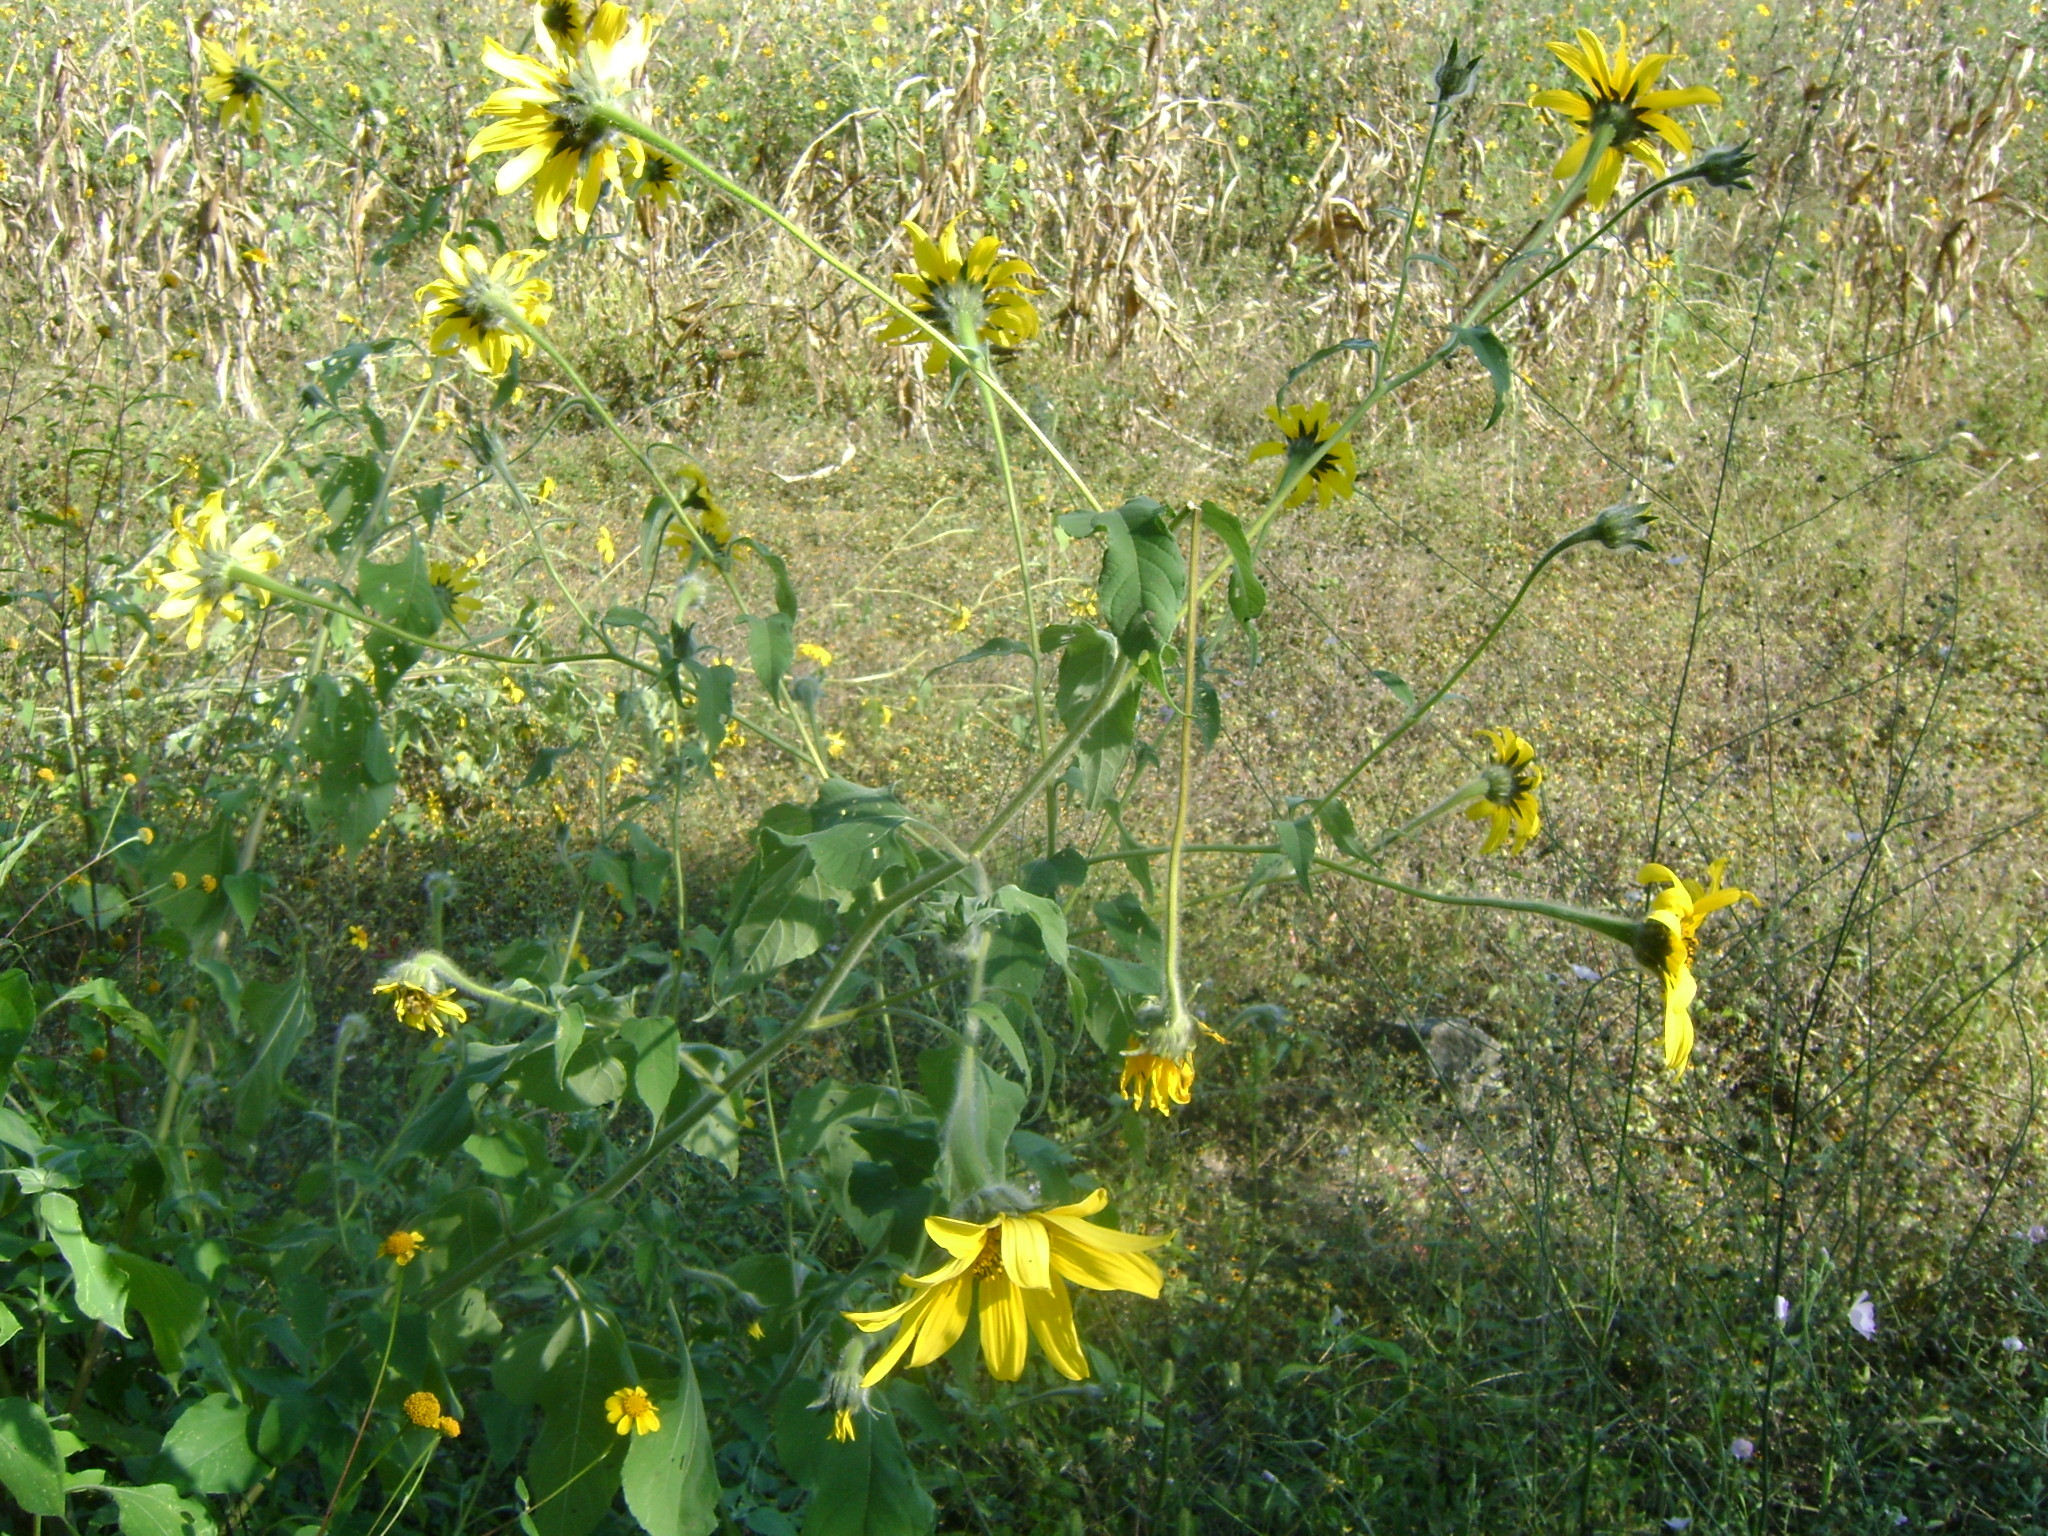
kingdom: Plantae
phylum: Tracheophyta
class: Magnoliopsida
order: Asterales
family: Asteraceae
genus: Tithonia
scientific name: Tithonia tubaeformis
